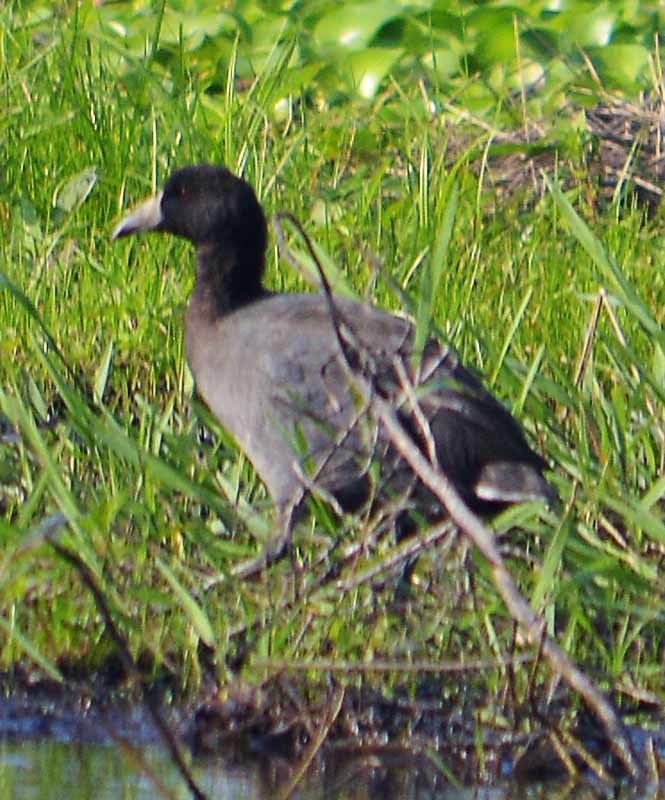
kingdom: Animalia
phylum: Chordata
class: Aves
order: Gruiformes
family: Rallidae
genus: Fulica
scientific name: Fulica americana
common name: American coot
